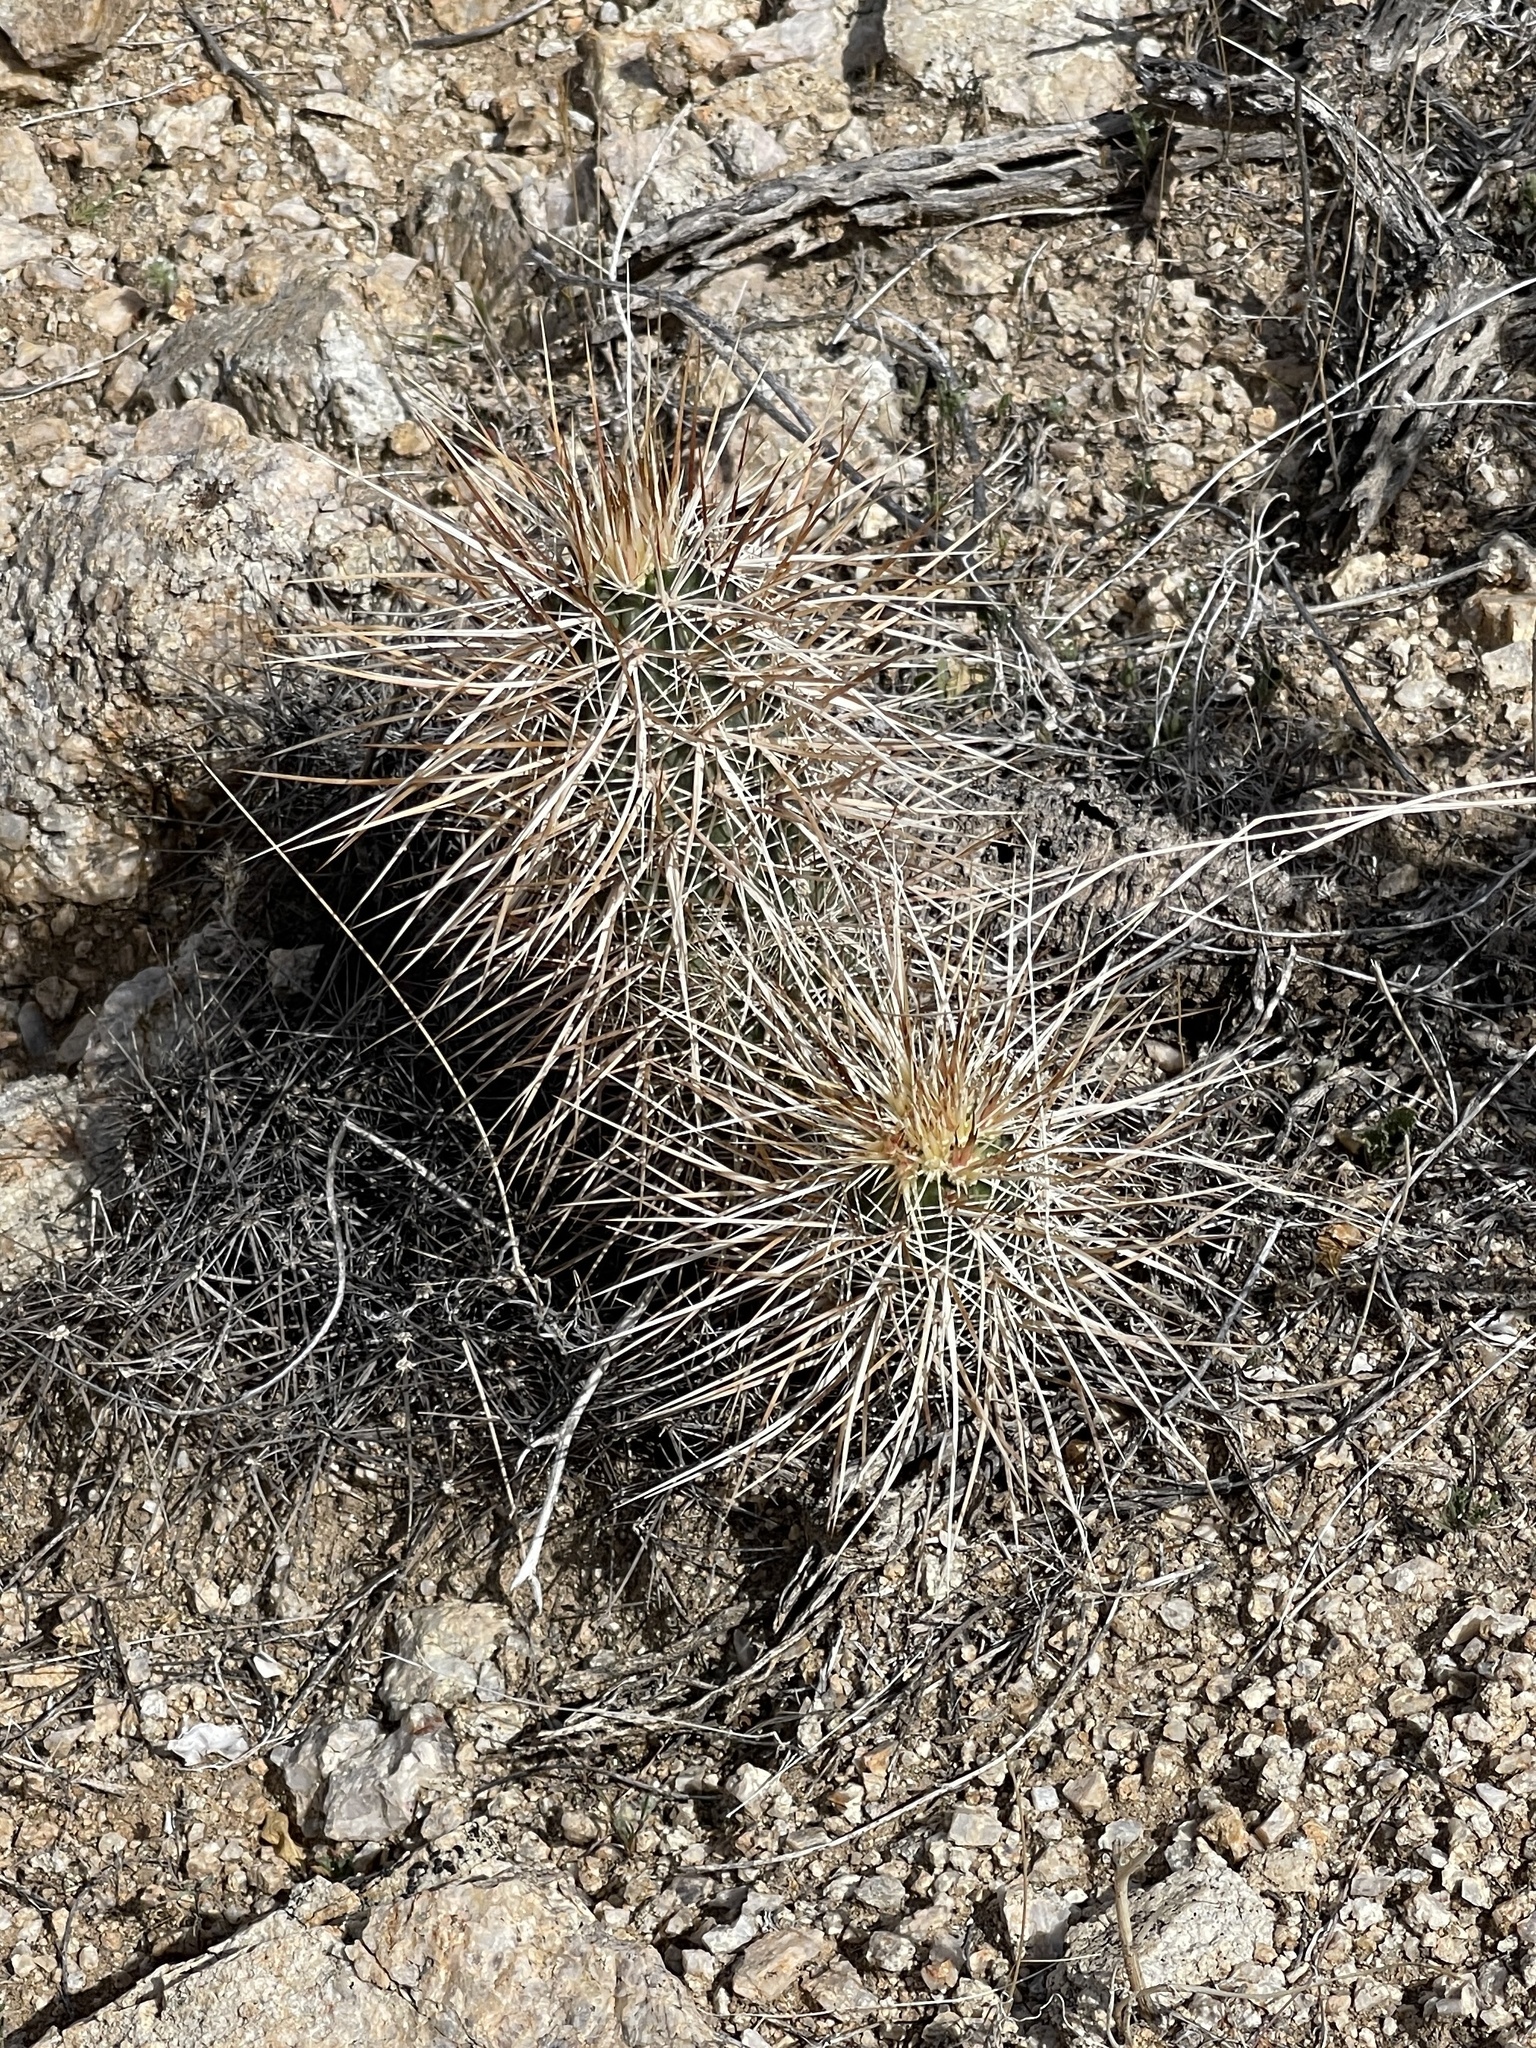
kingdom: Plantae
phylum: Tracheophyta
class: Magnoliopsida
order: Caryophyllales
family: Cactaceae
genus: Echinocereus
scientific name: Echinocereus engelmannii
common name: Engelmann's hedgehog cactus
